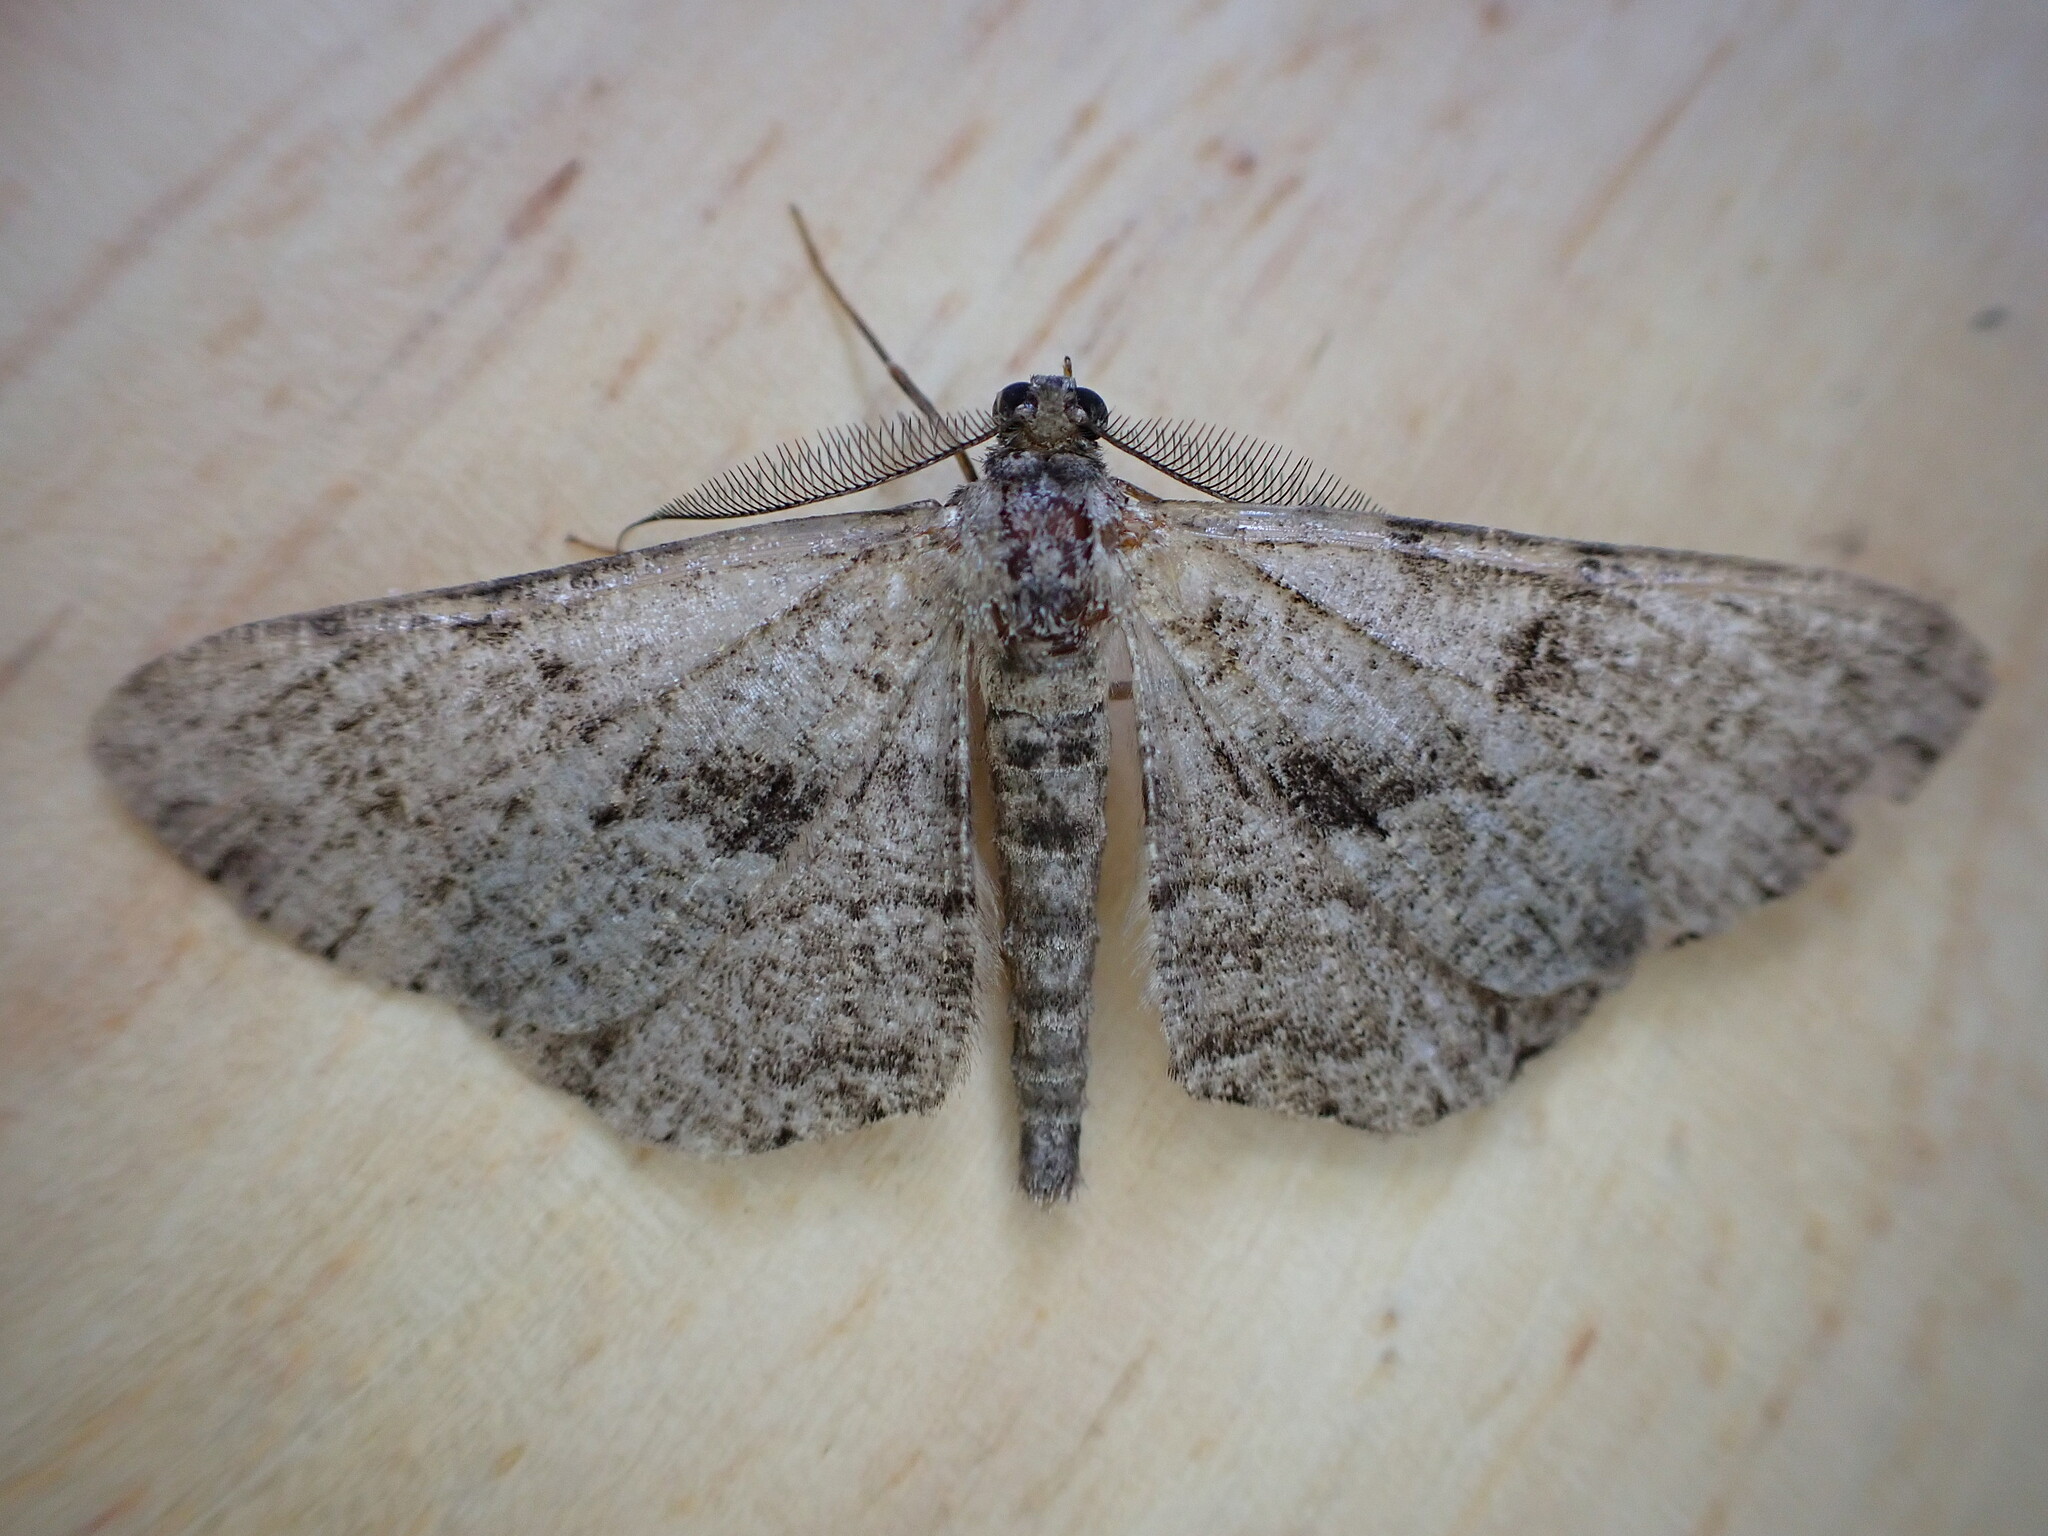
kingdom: Animalia
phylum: Arthropoda
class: Insecta
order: Lepidoptera
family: Geometridae
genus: Peribatodes
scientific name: Peribatodes rhomboidaria
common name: Willow beauty
